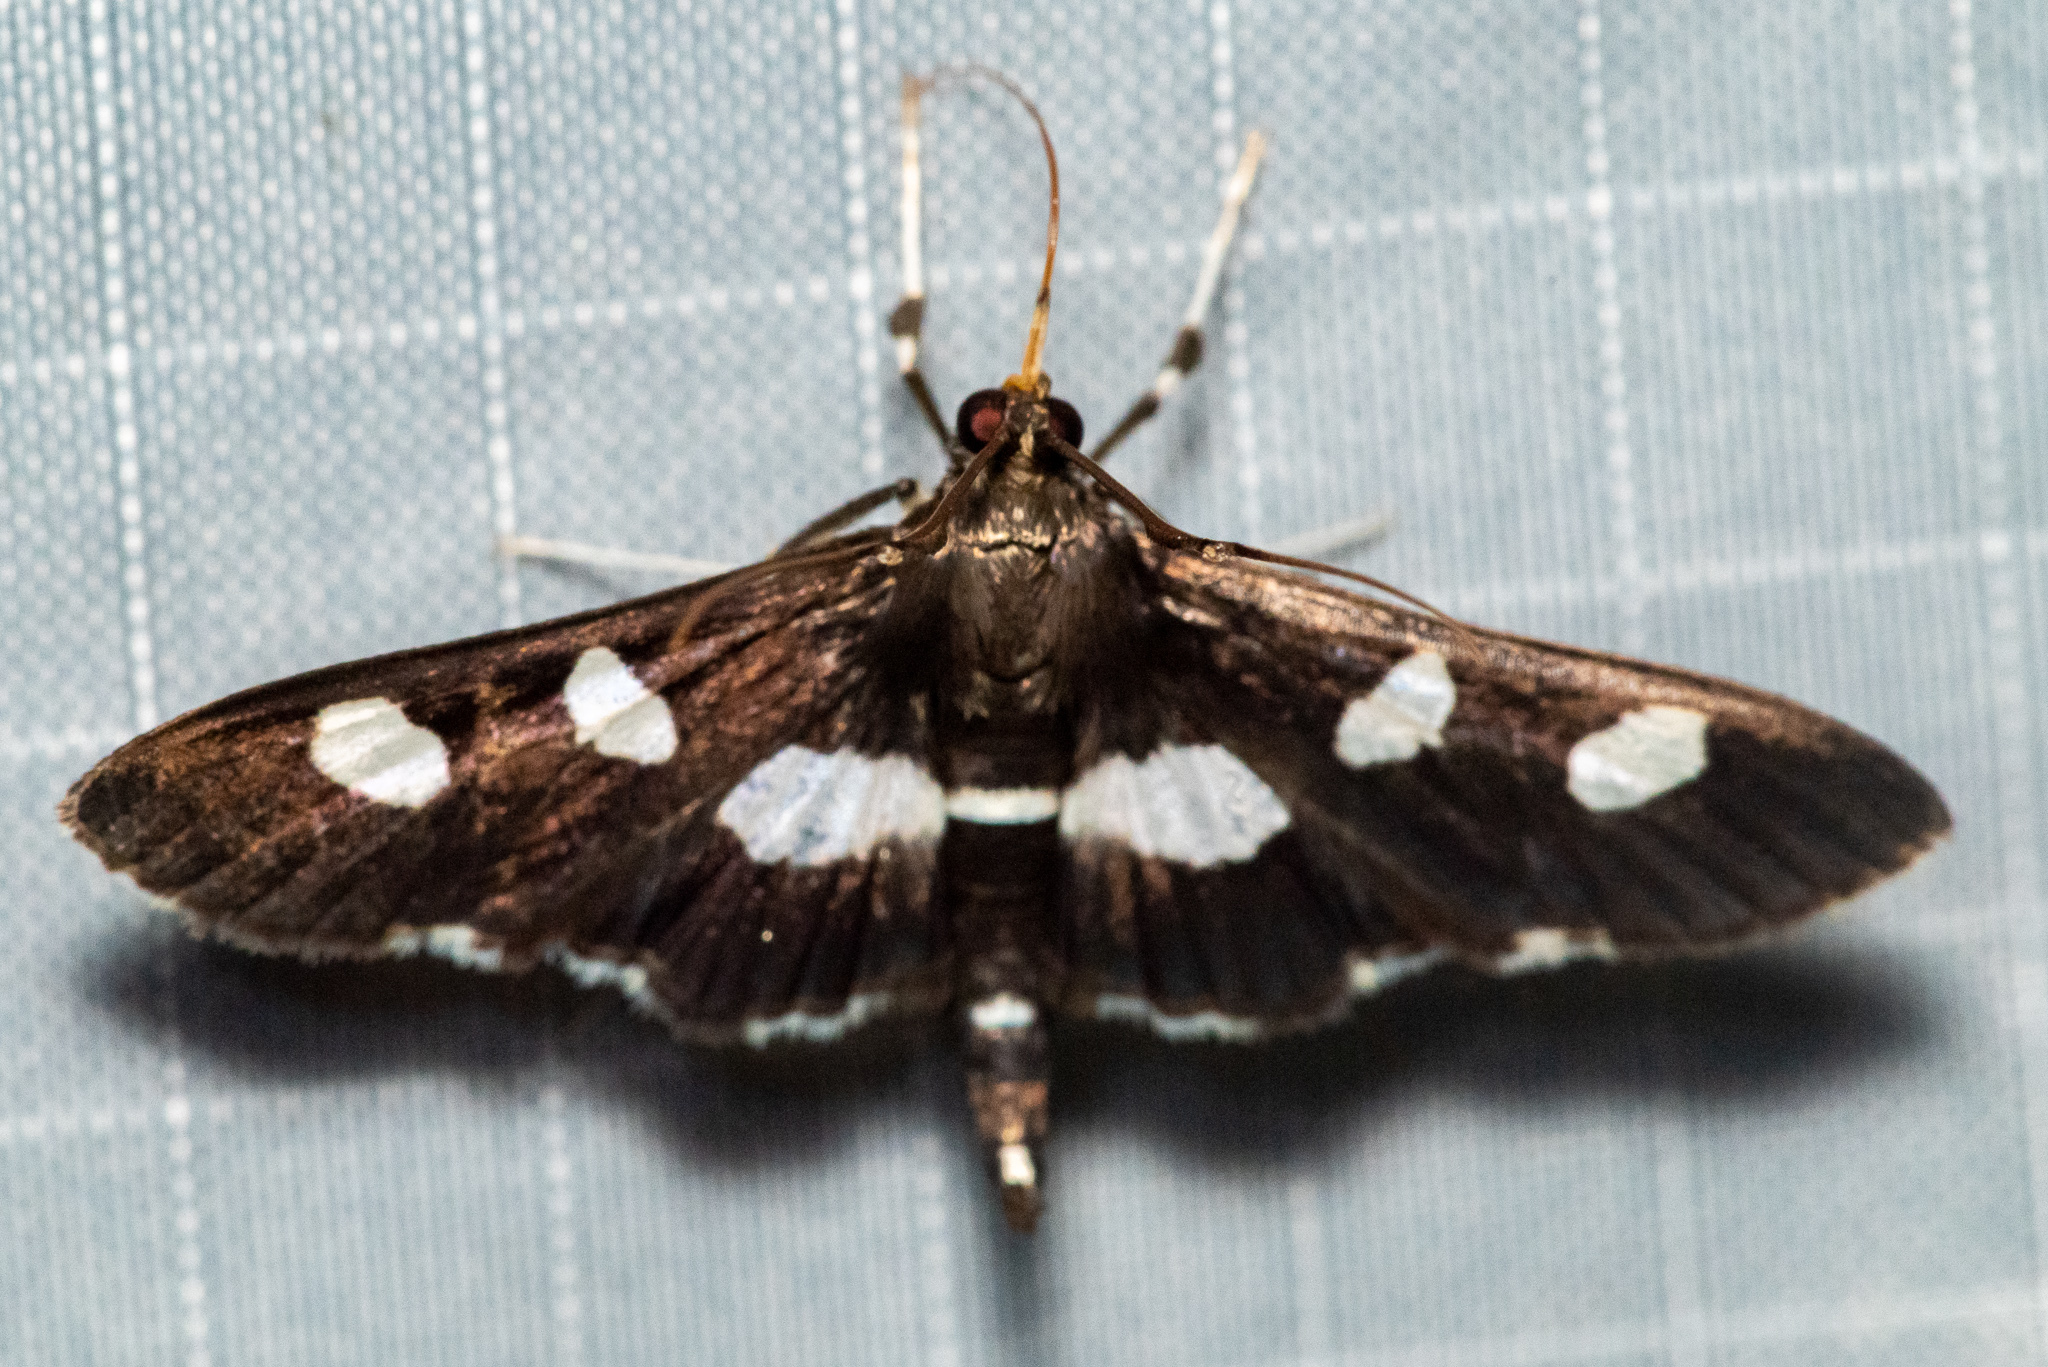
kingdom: Animalia
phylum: Arthropoda
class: Insecta
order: Lepidoptera
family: Crambidae
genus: Desmia
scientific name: Desmia
